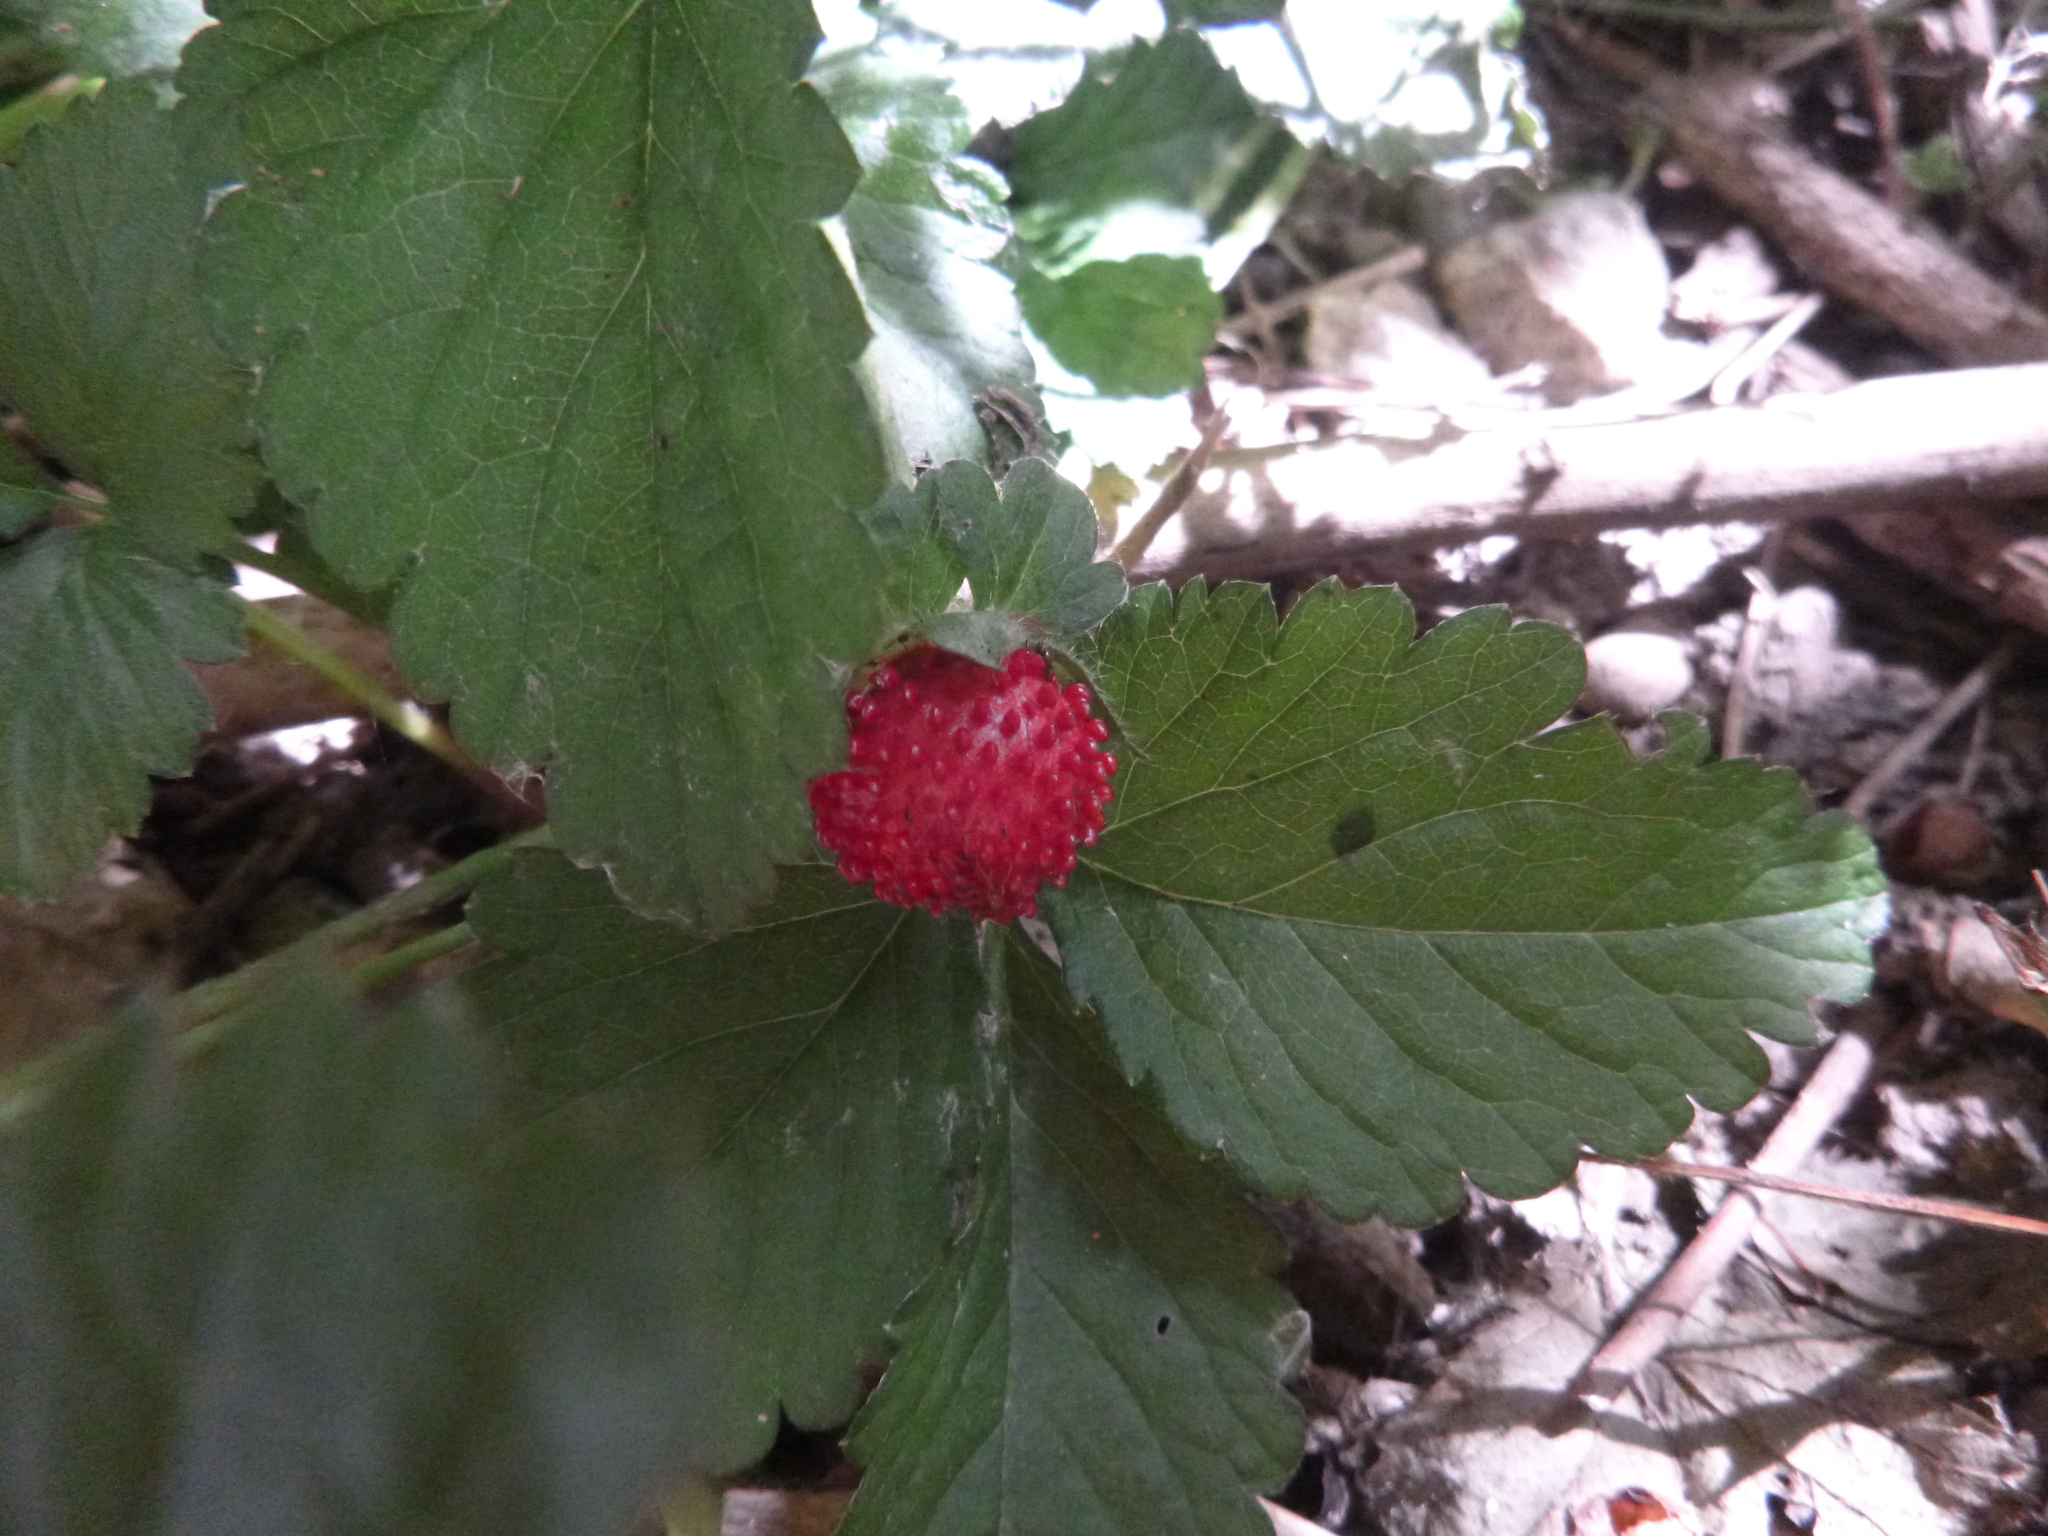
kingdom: Plantae
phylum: Tracheophyta
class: Magnoliopsida
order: Rosales
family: Rosaceae
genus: Potentilla
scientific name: Potentilla indica
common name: Yellow-flowered strawberry
